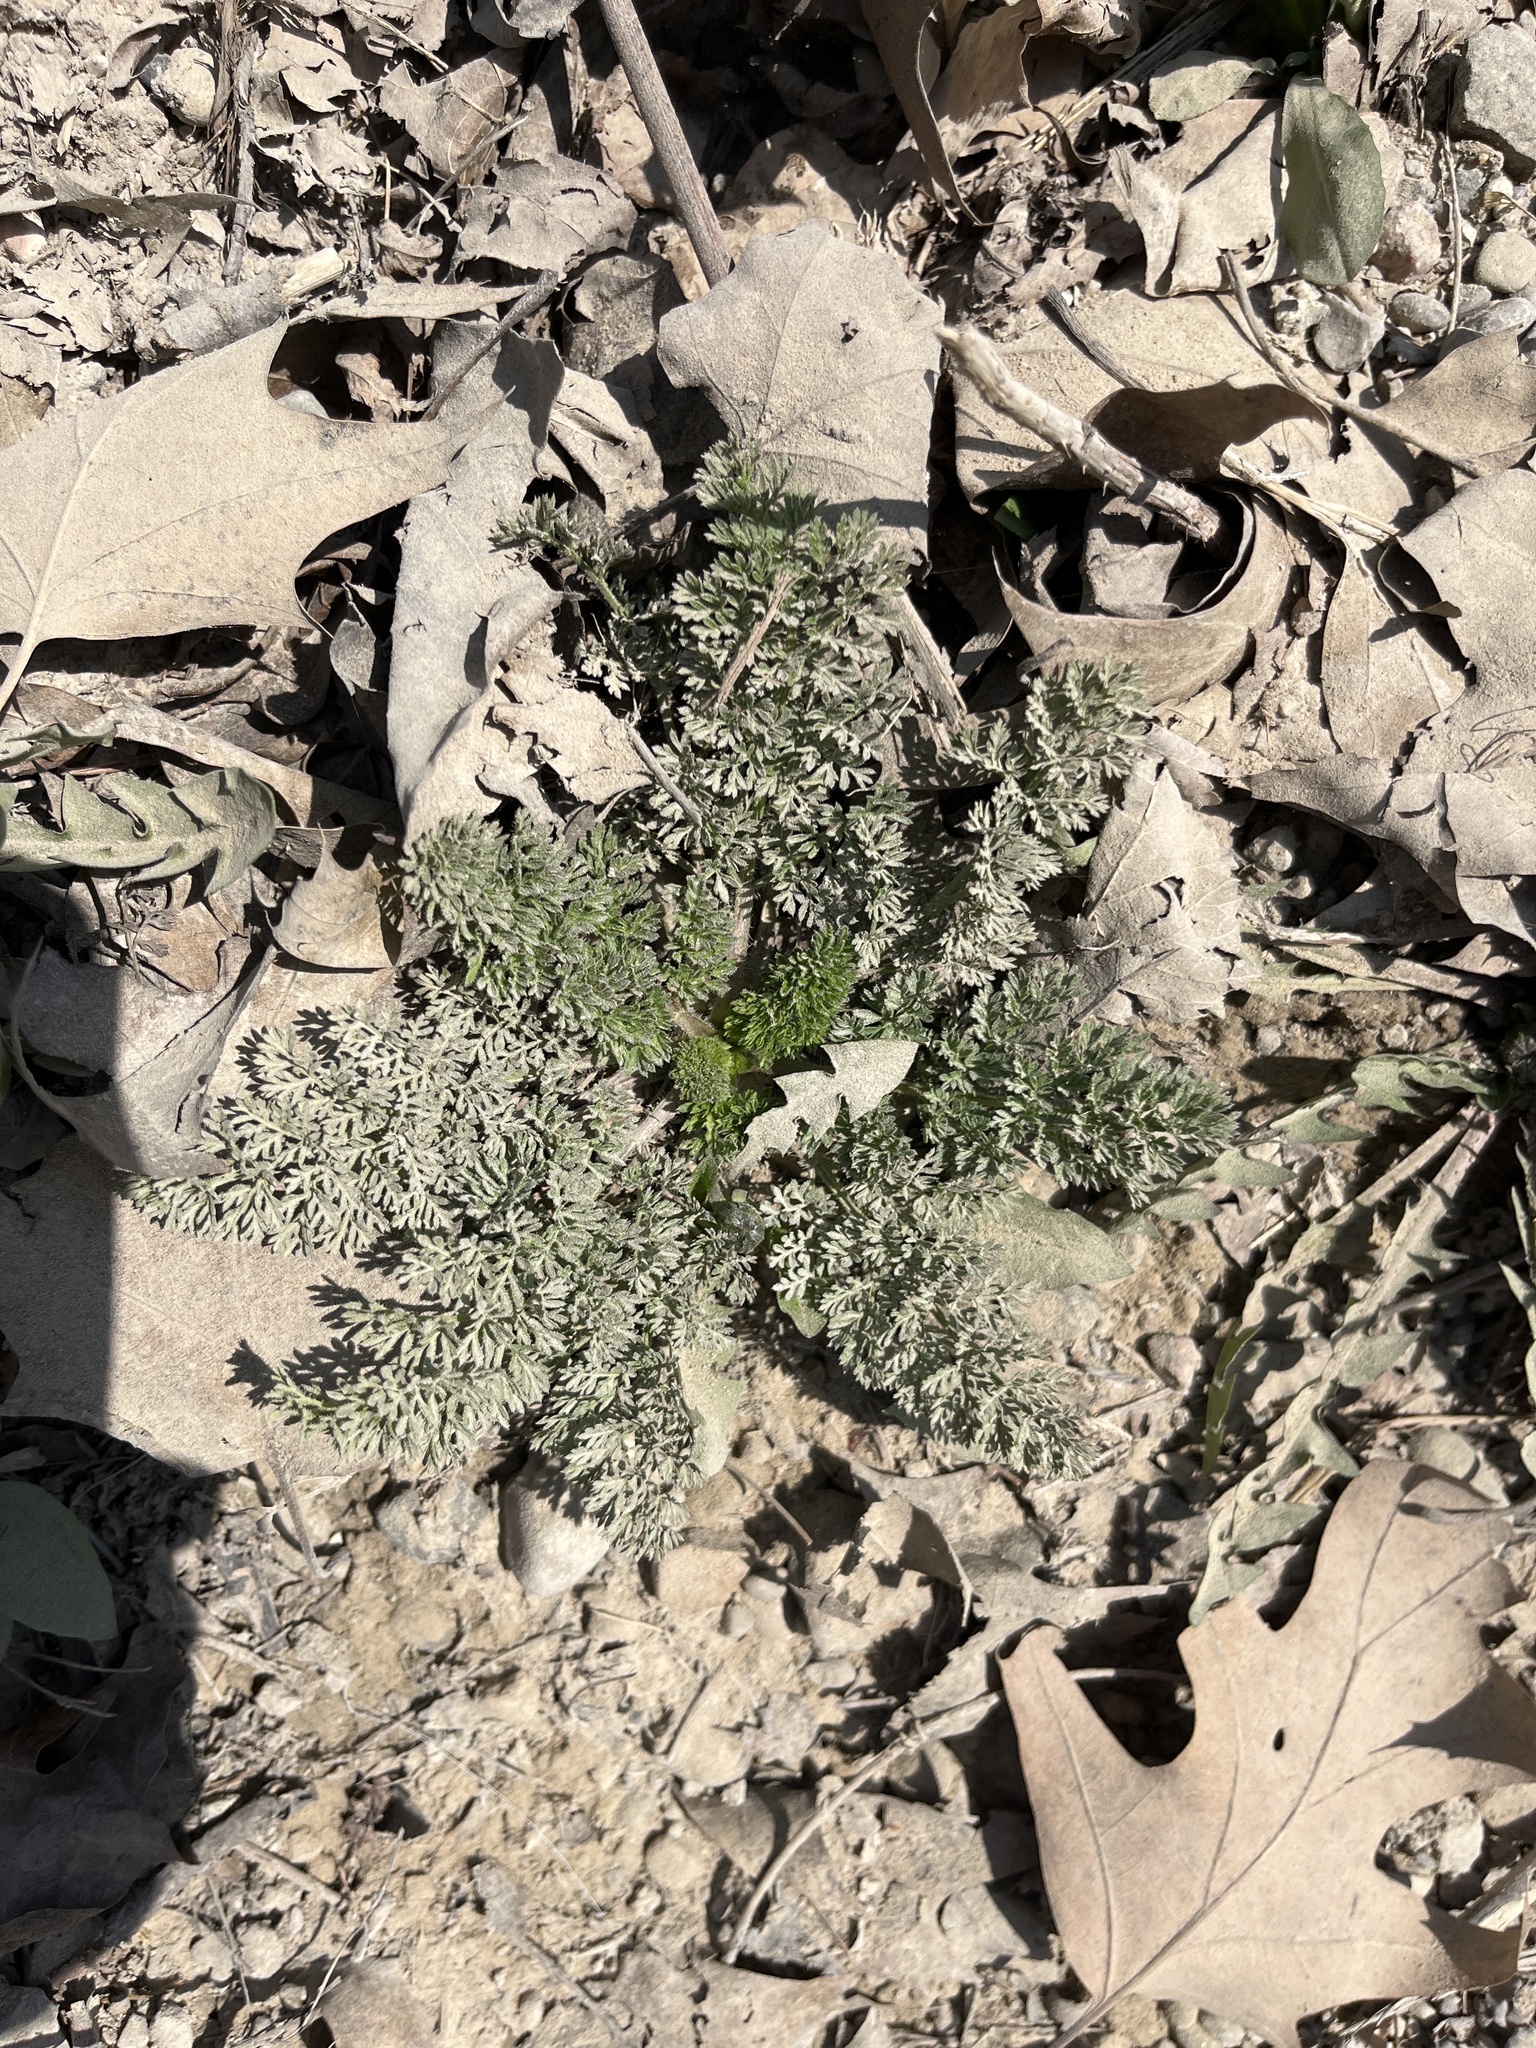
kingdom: Plantae
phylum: Tracheophyta
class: Magnoliopsida
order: Apiales
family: Apiaceae
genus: Daucus
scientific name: Daucus carota
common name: Wild carrot
